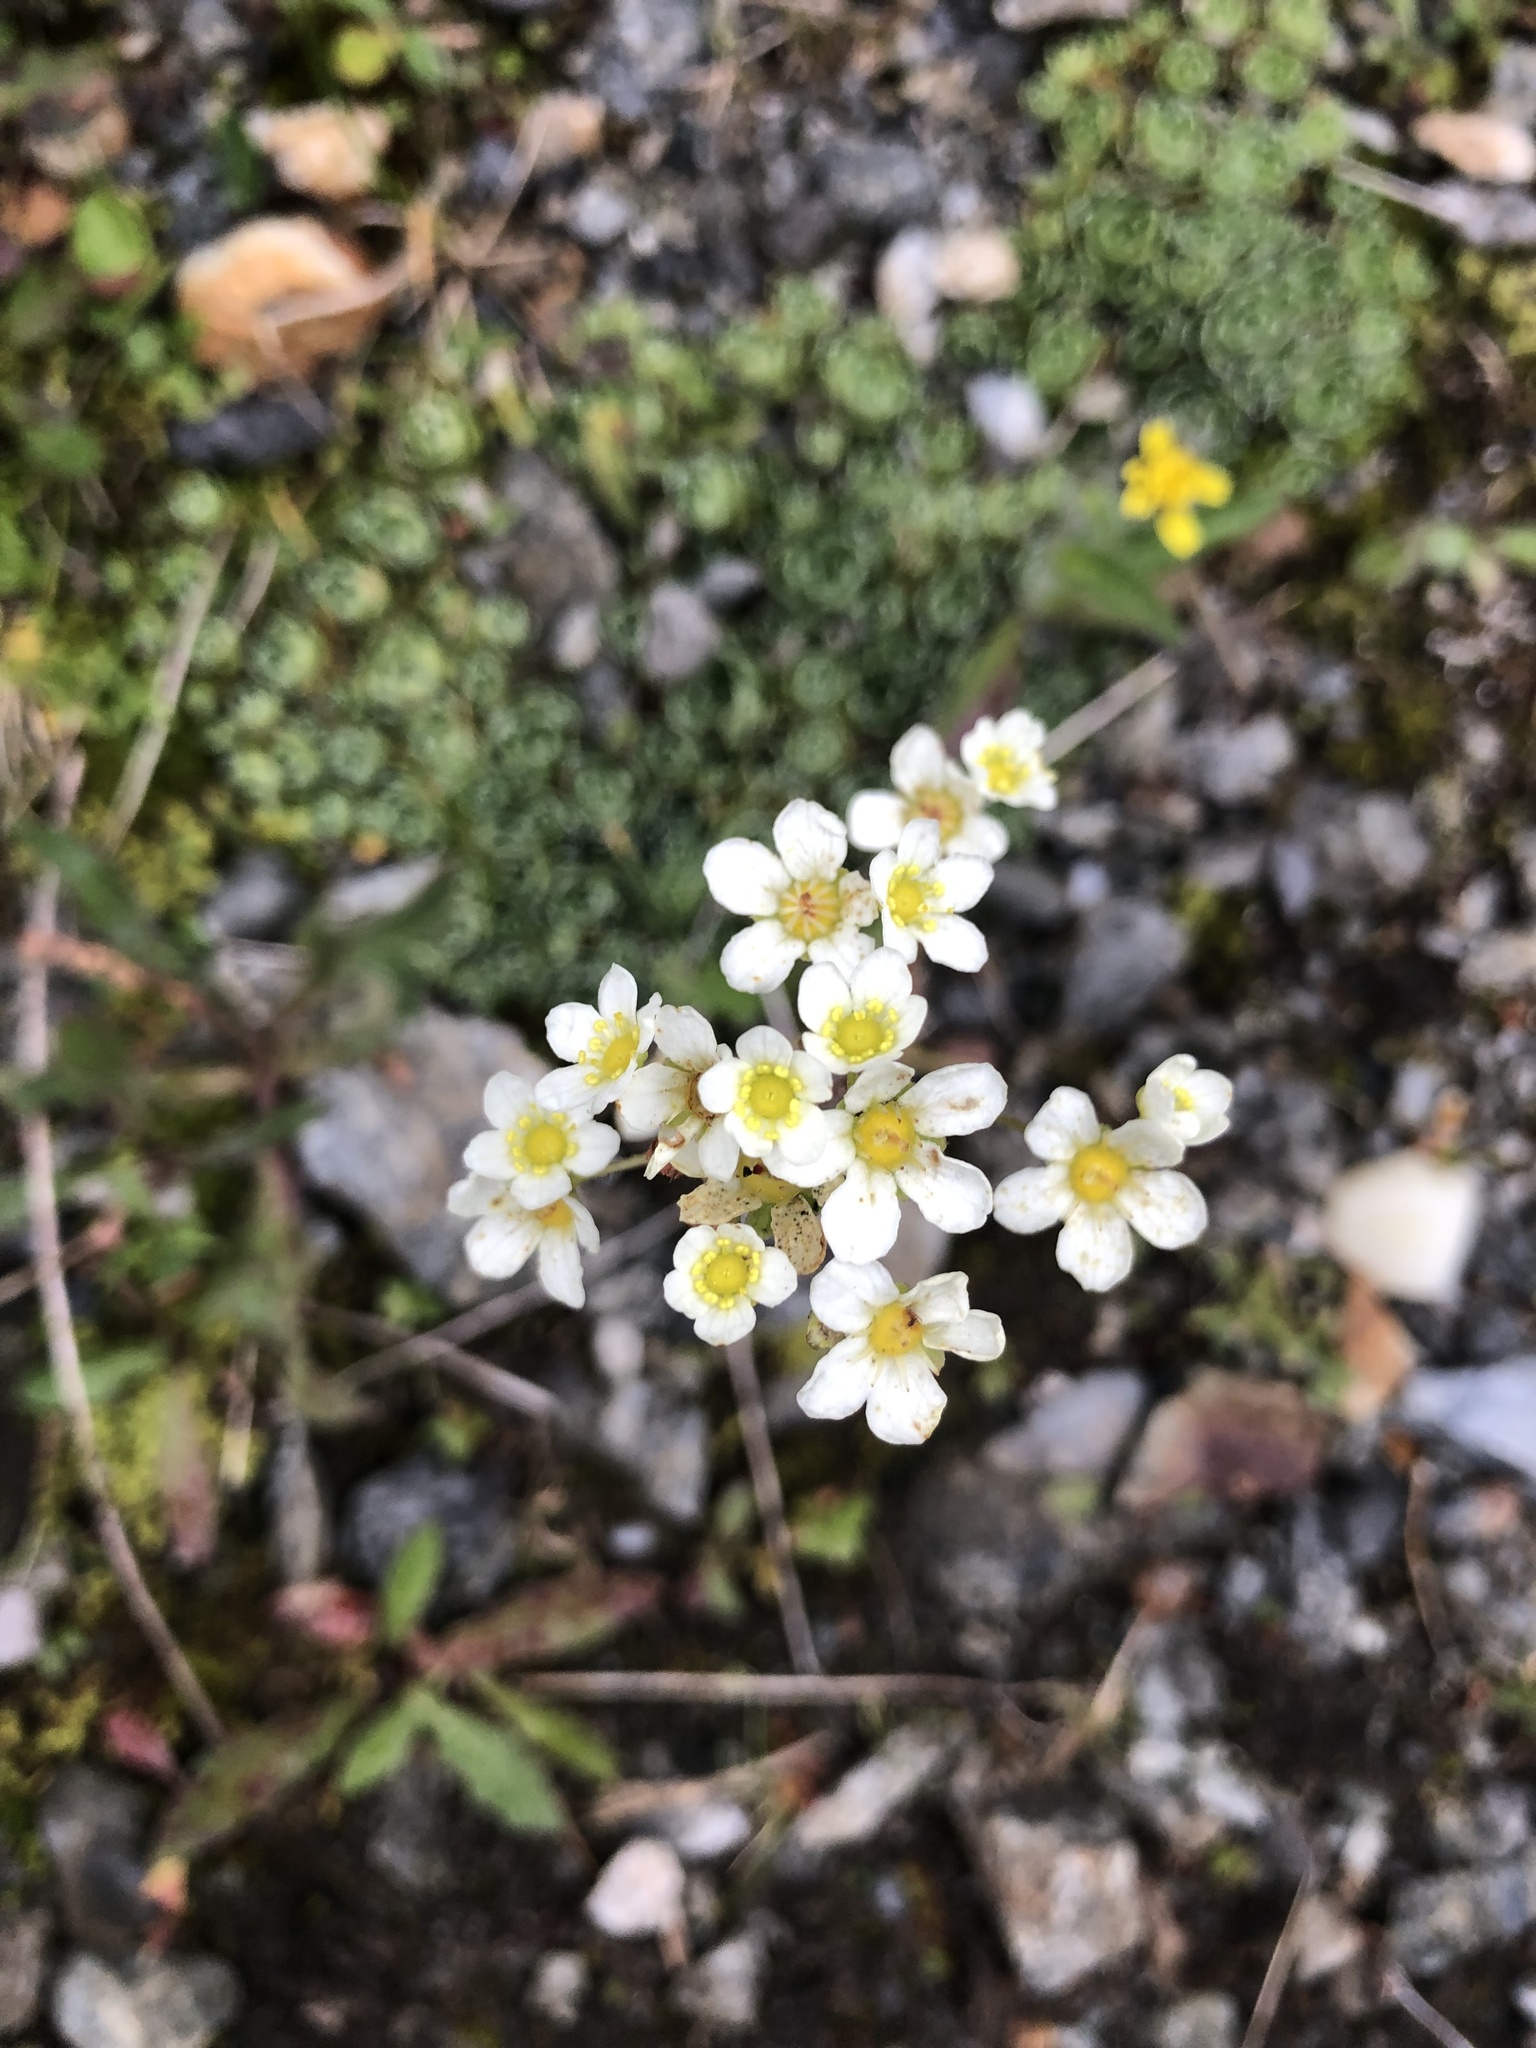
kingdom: Plantae
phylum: Tracheophyta
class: Magnoliopsida
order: Saxifragales
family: Saxifragaceae
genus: Saxifraga
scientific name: Saxifraga paniculata
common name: Livelong saxifrage
